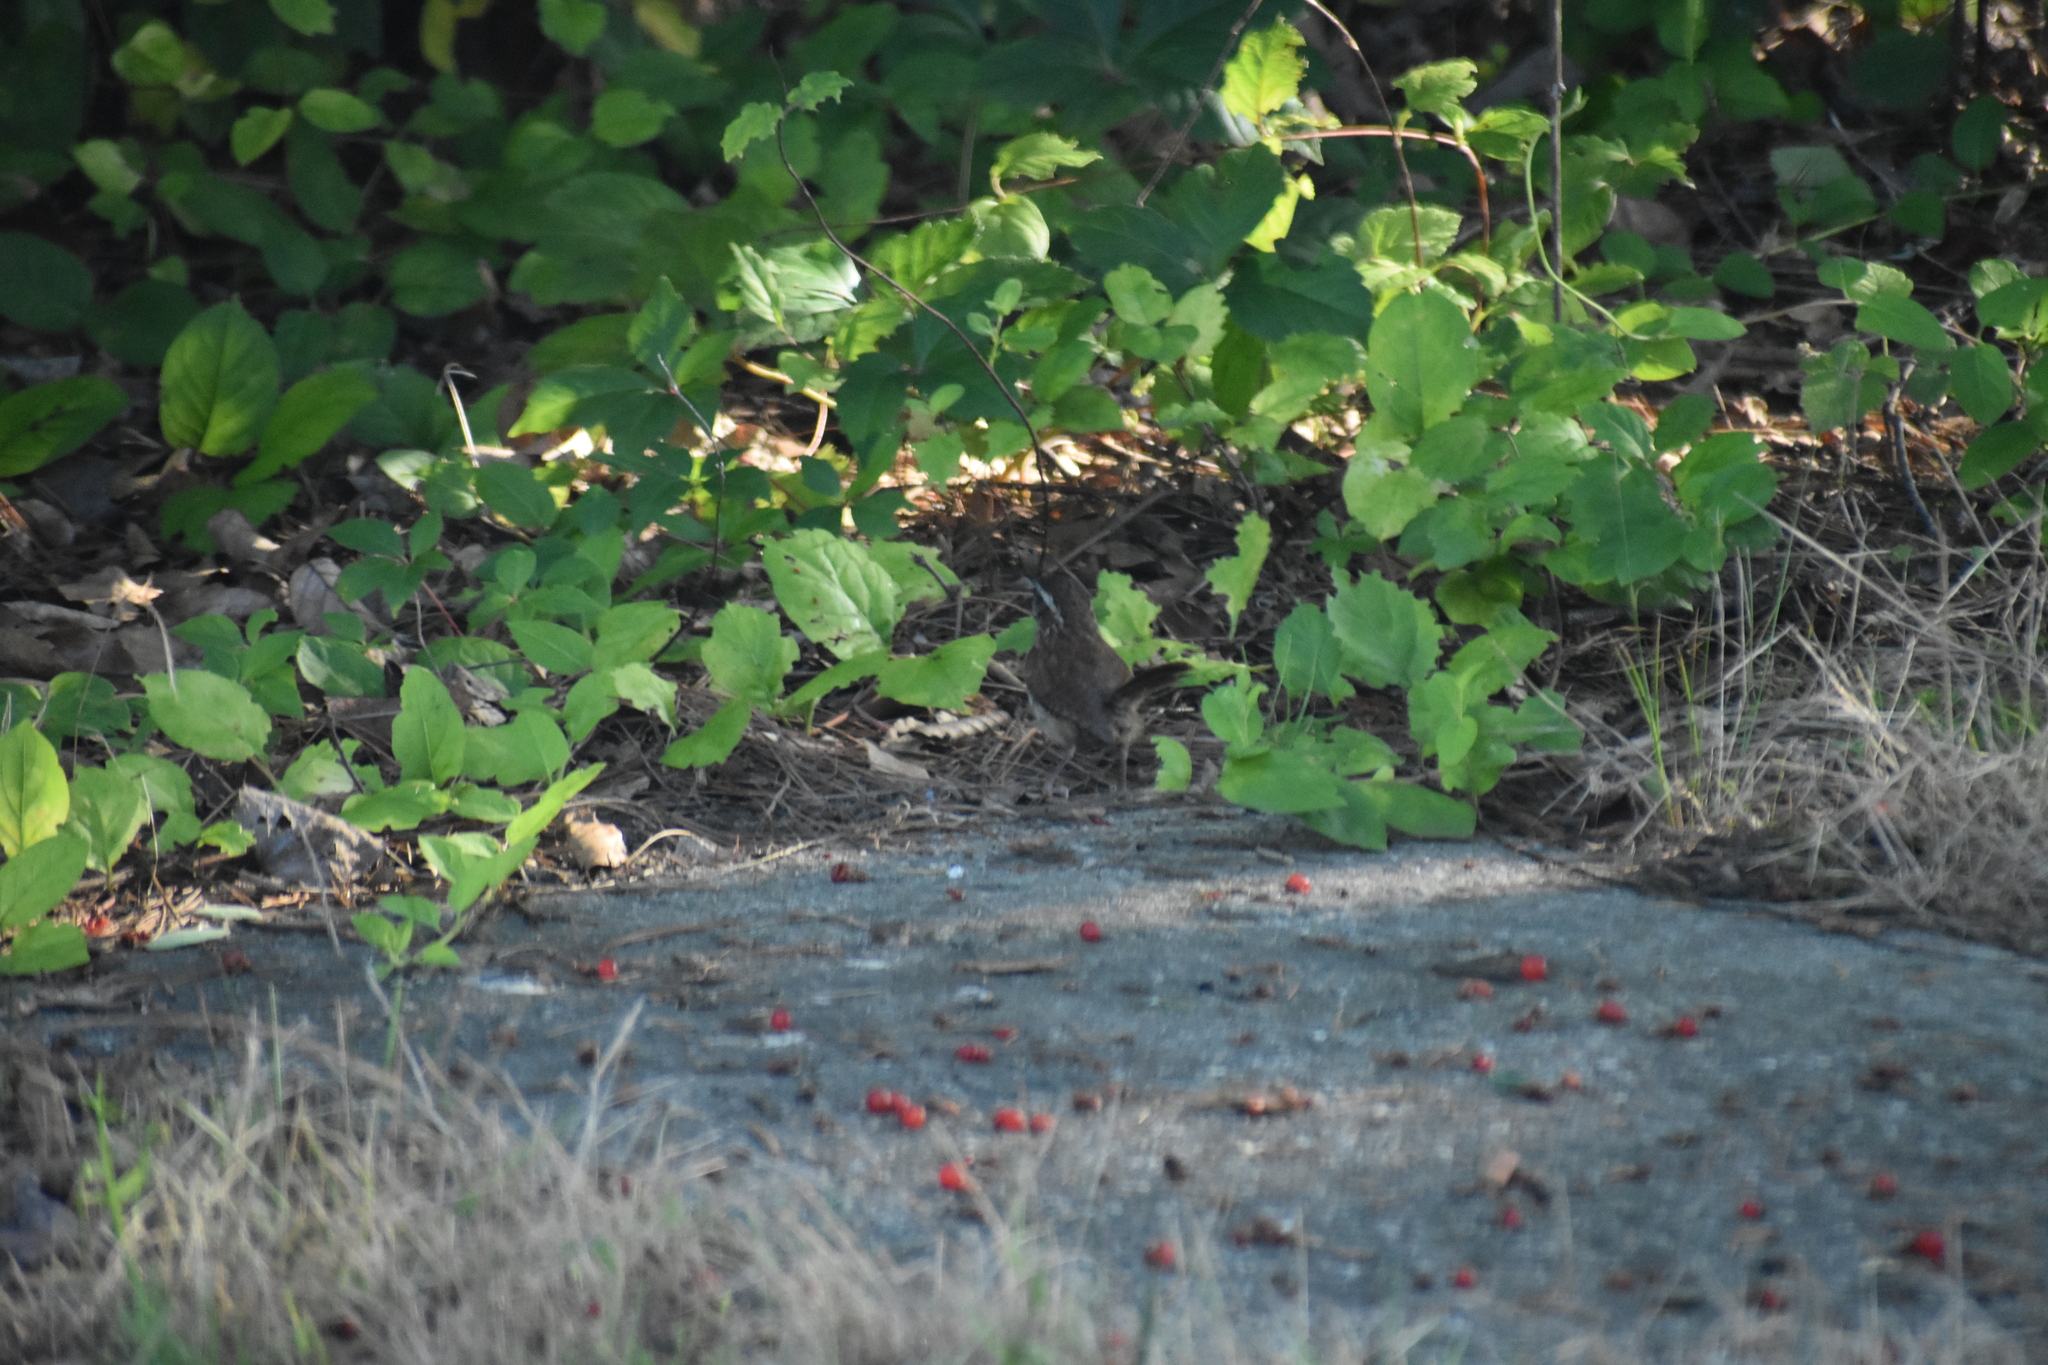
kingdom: Animalia
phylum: Chordata
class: Aves
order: Passeriformes
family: Troglodytidae
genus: Thryothorus
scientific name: Thryothorus ludovicianus
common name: Carolina wren
